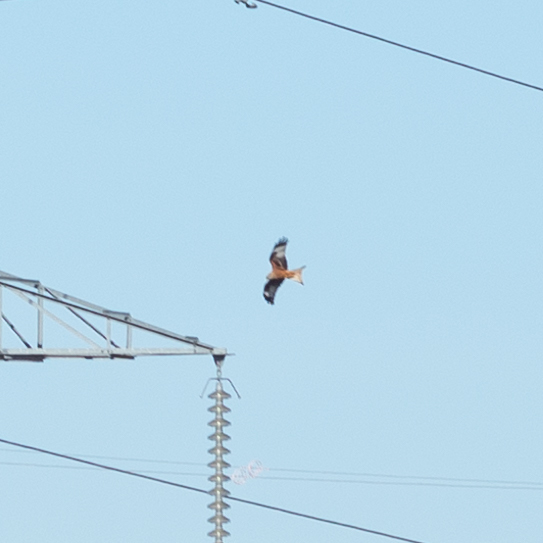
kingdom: Animalia
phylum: Chordata
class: Aves
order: Accipitriformes
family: Accipitridae
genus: Milvus
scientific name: Milvus milvus
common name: Red kite
